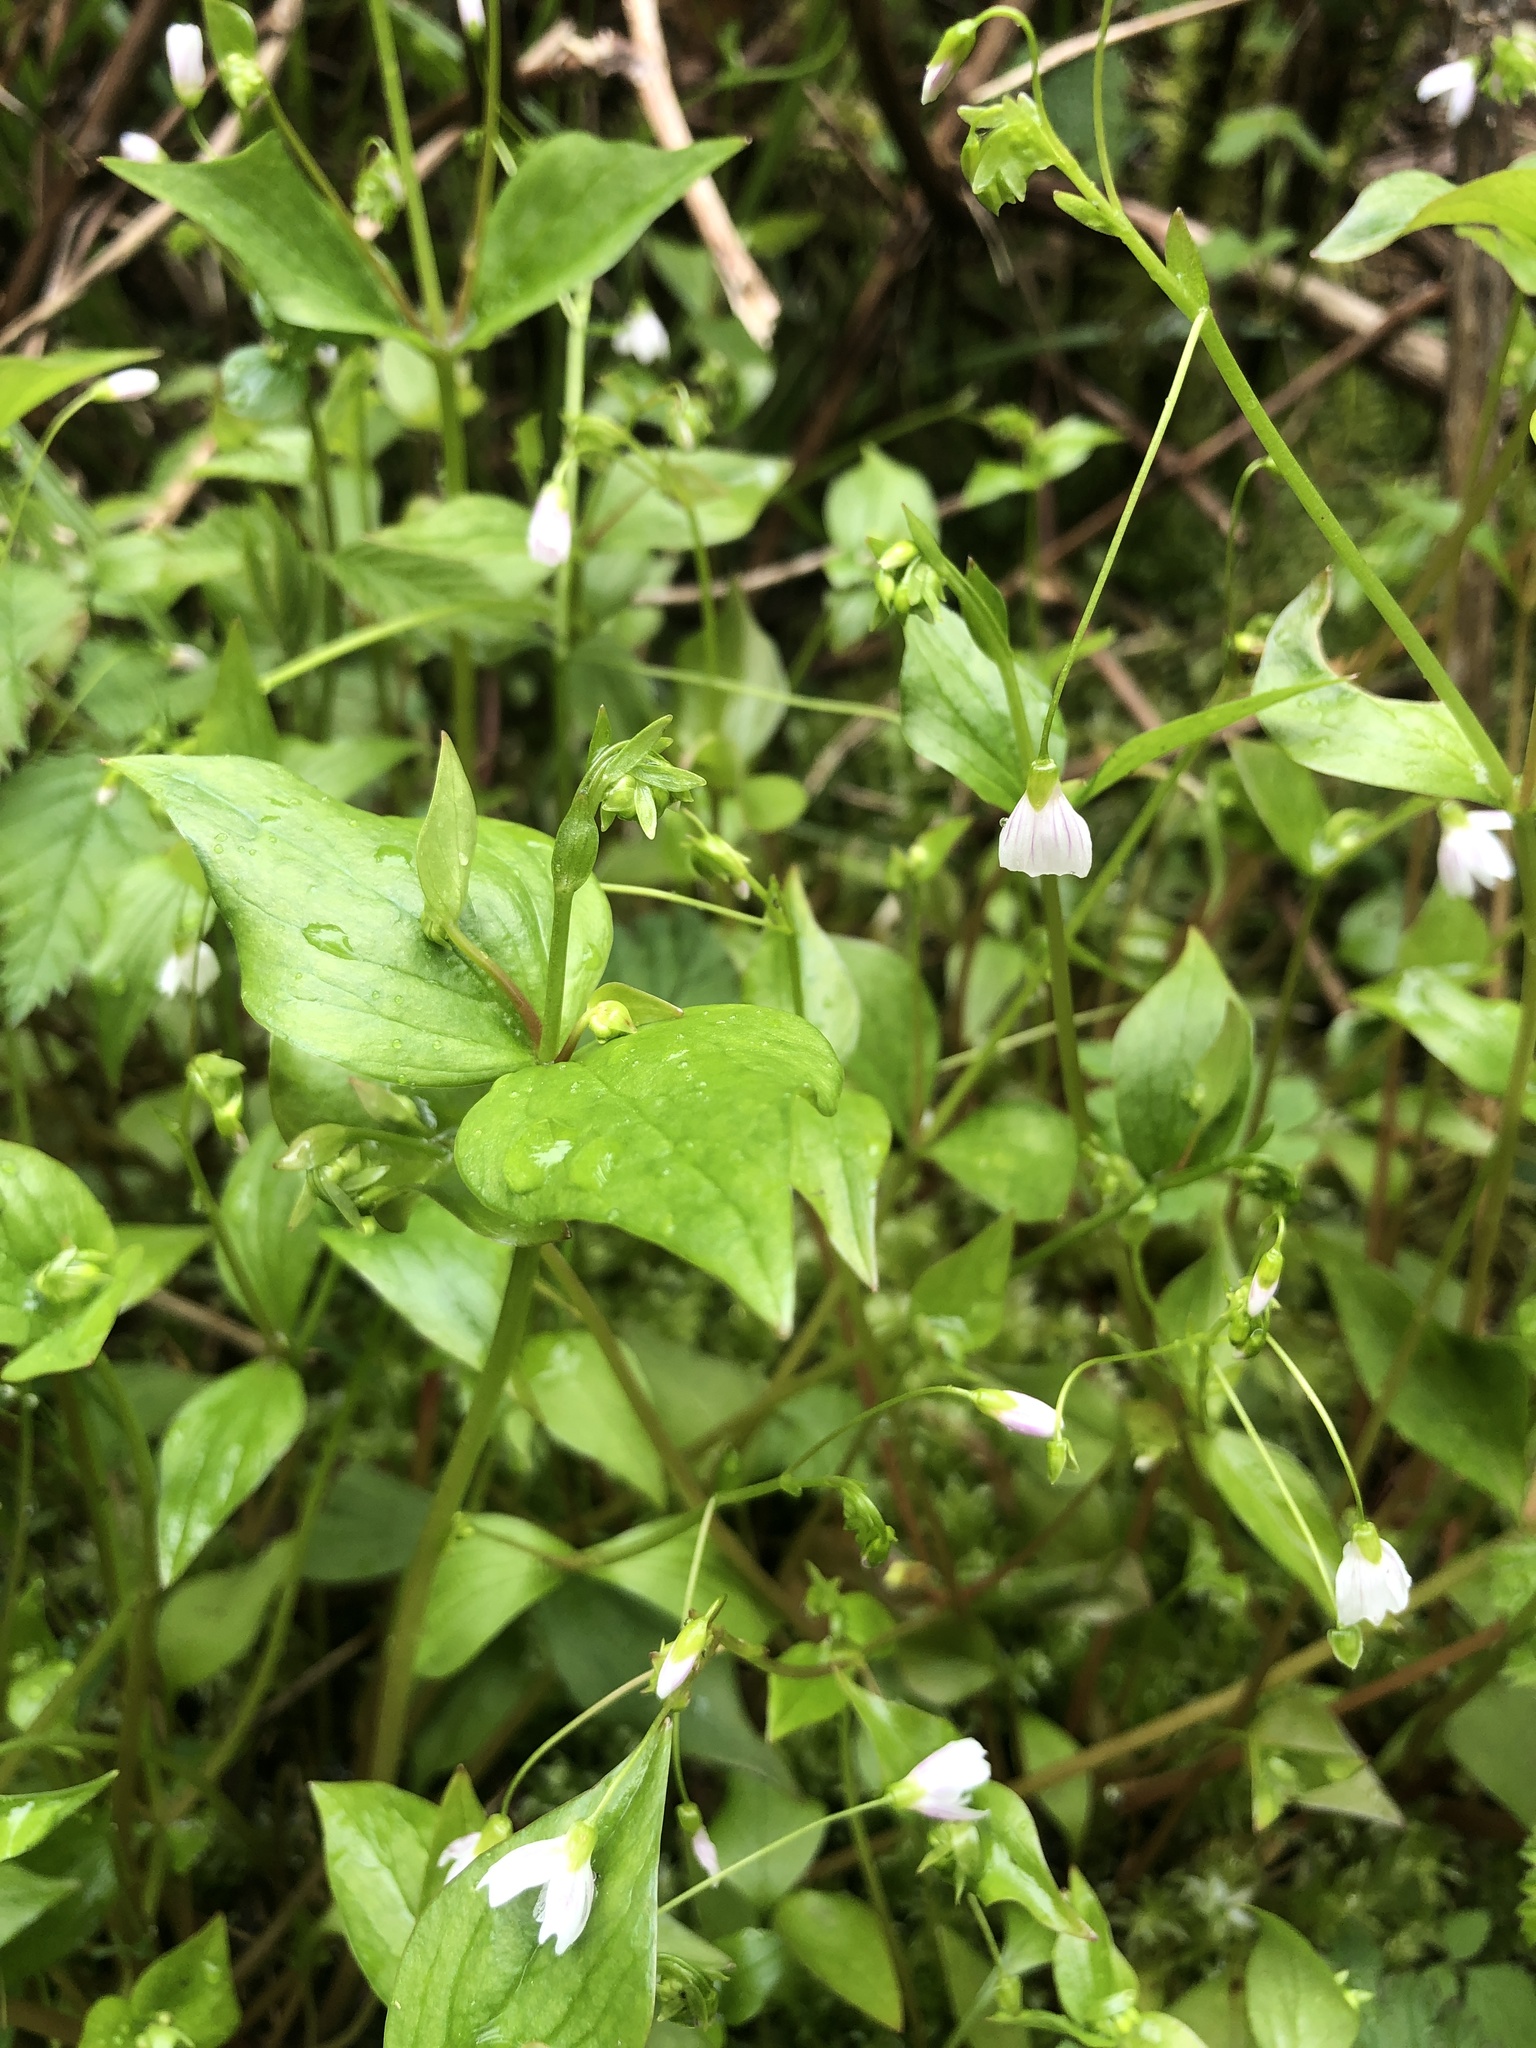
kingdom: Plantae
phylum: Tracheophyta
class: Magnoliopsida
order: Caryophyllales
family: Montiaceae
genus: Claytonia
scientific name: Claytonia sibirica
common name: Pink purslane
